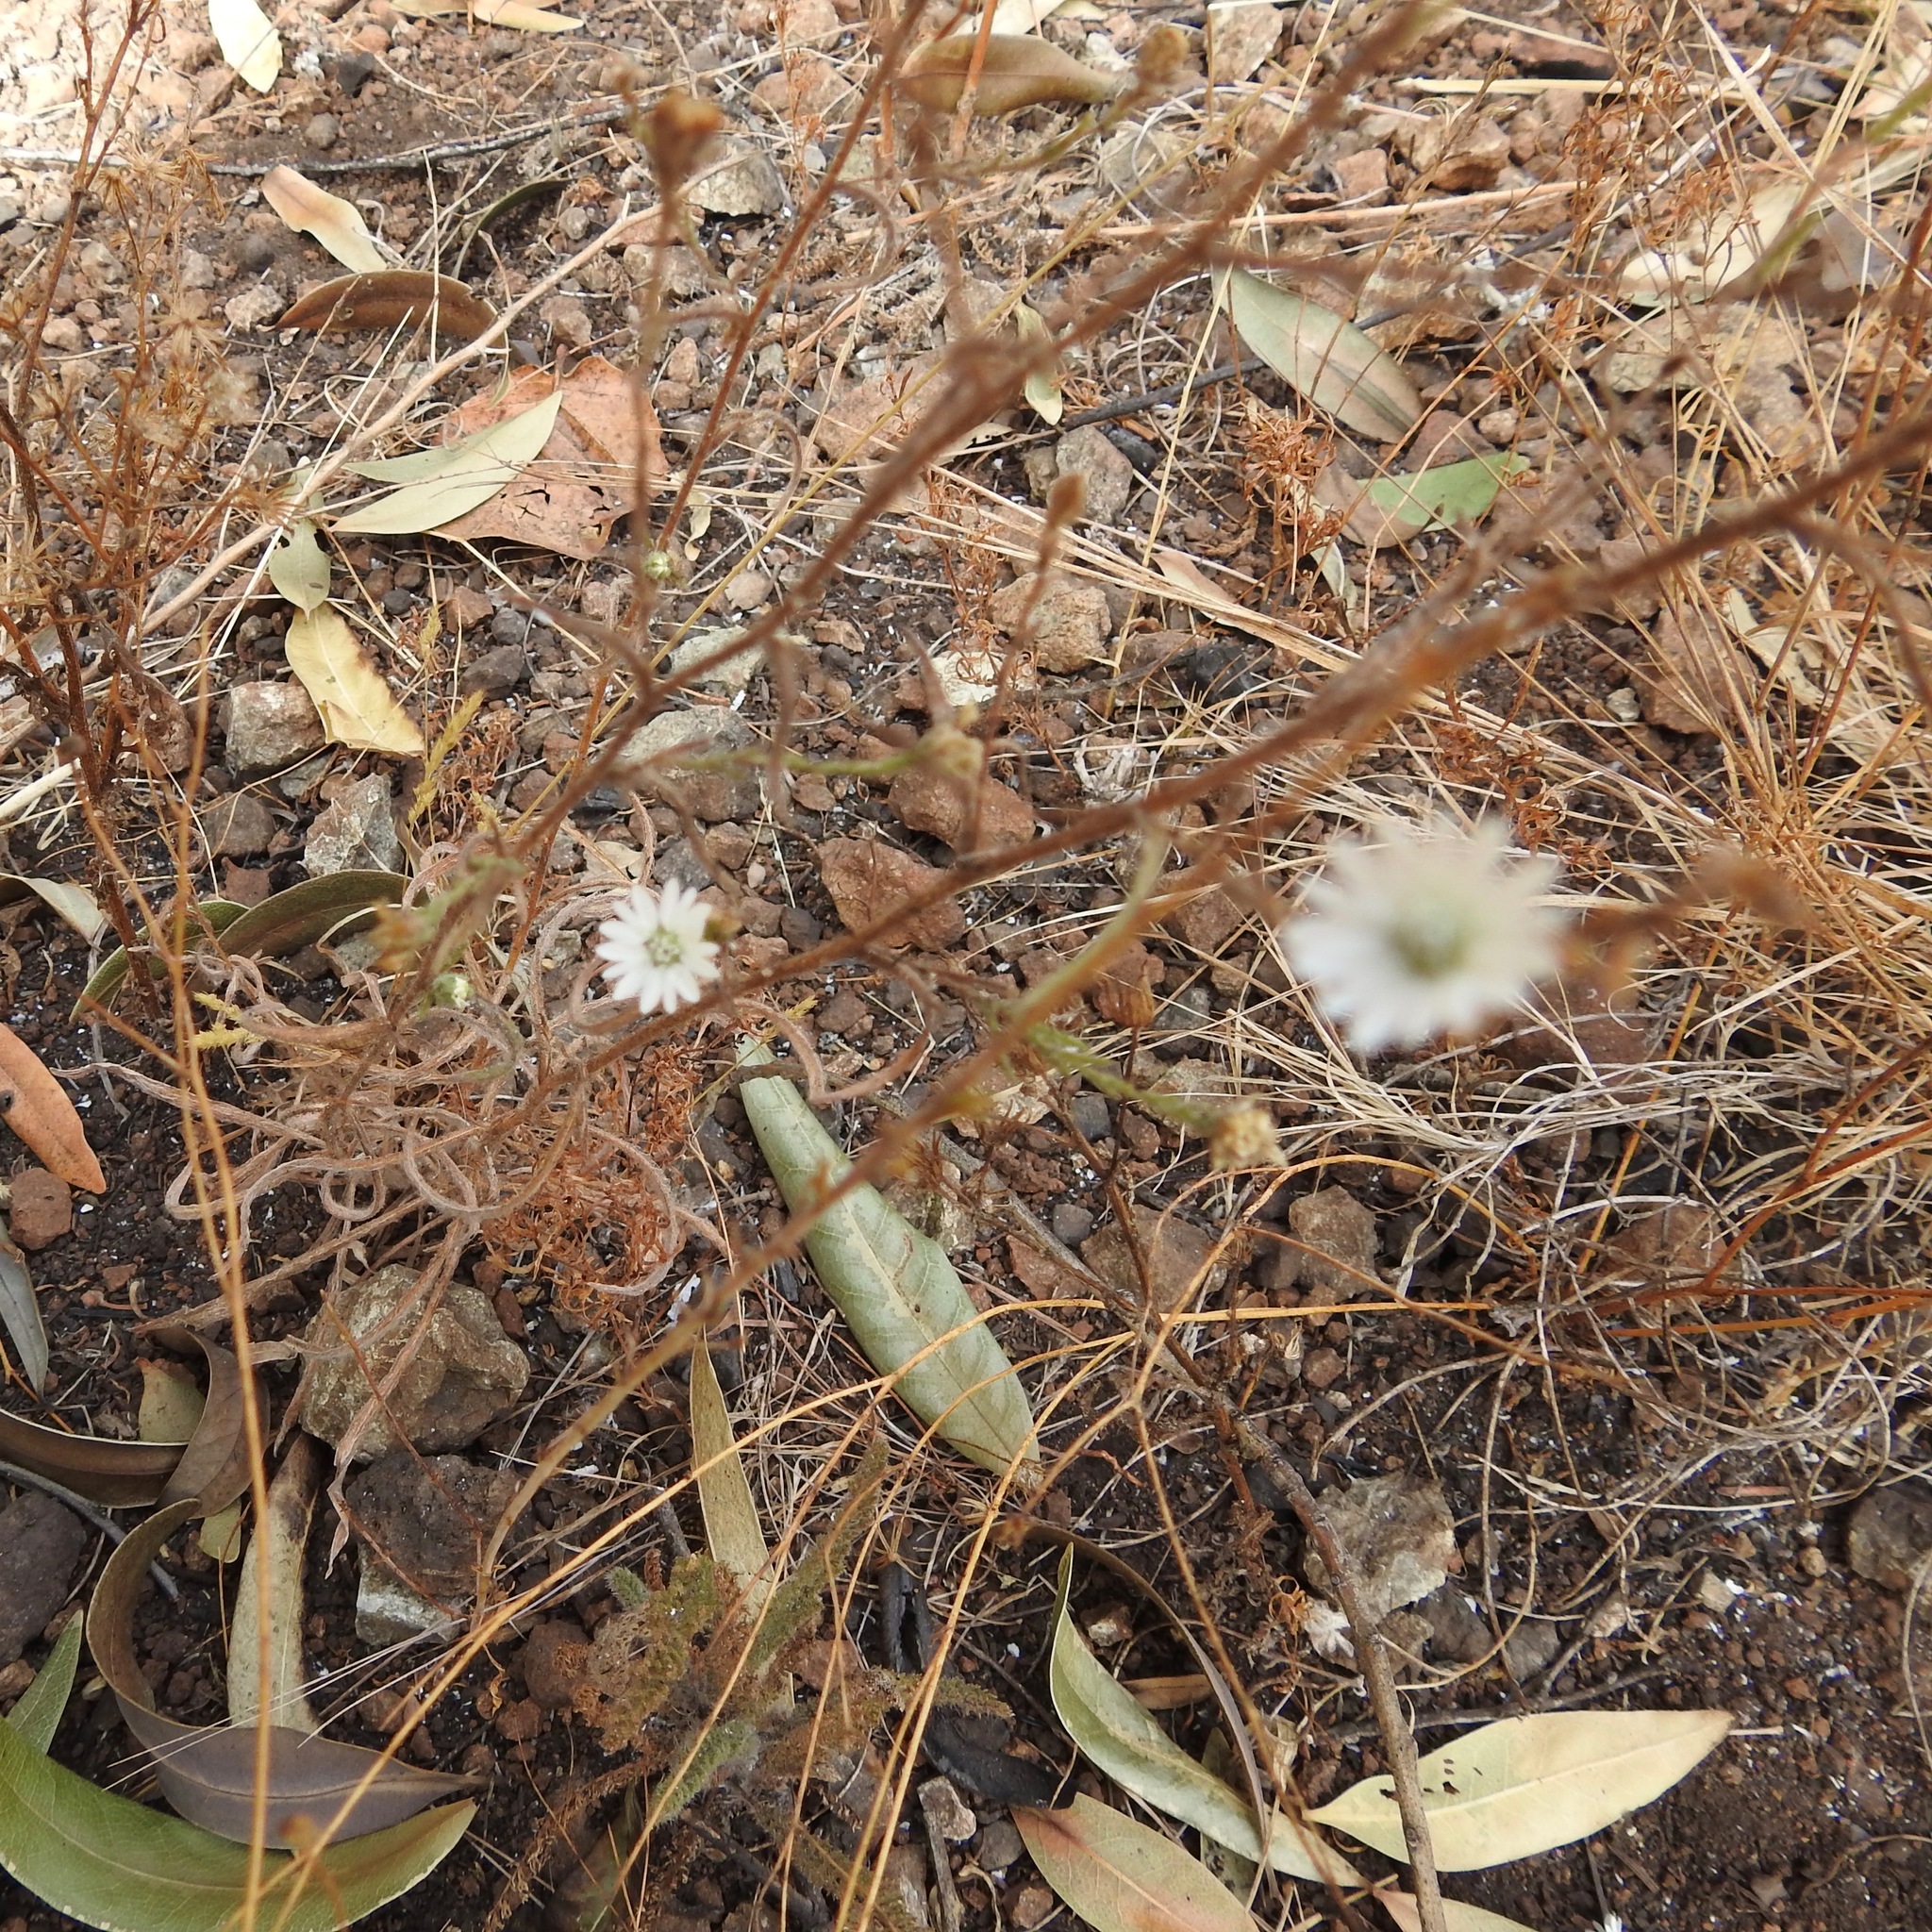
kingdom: Plantae
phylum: Tracheophyta
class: Magnoliopsida
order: Asterales
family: Asteraceae
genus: Hemizonia
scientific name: Hemizonia congesta
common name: Hayfield tarweed
